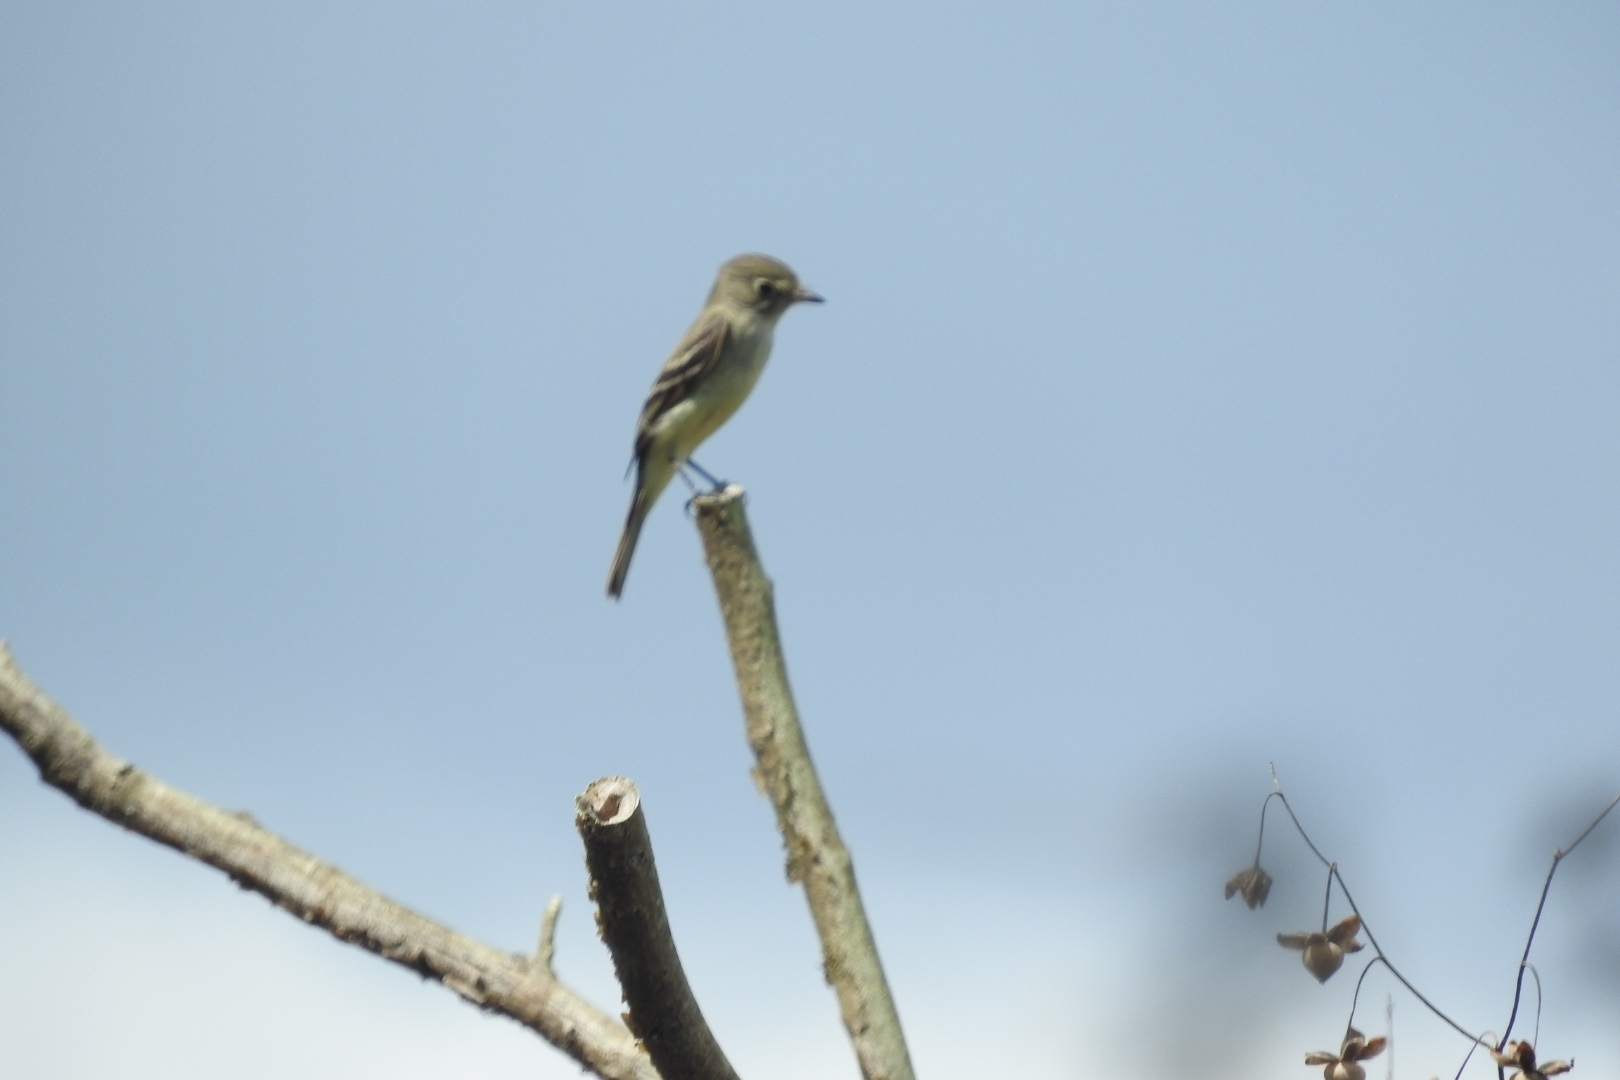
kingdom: Animalia
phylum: Chordata
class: Aves
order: Passeriformes
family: Tyrannidae
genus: Empidonax
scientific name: Empidonax minimus
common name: Least flycatcher
